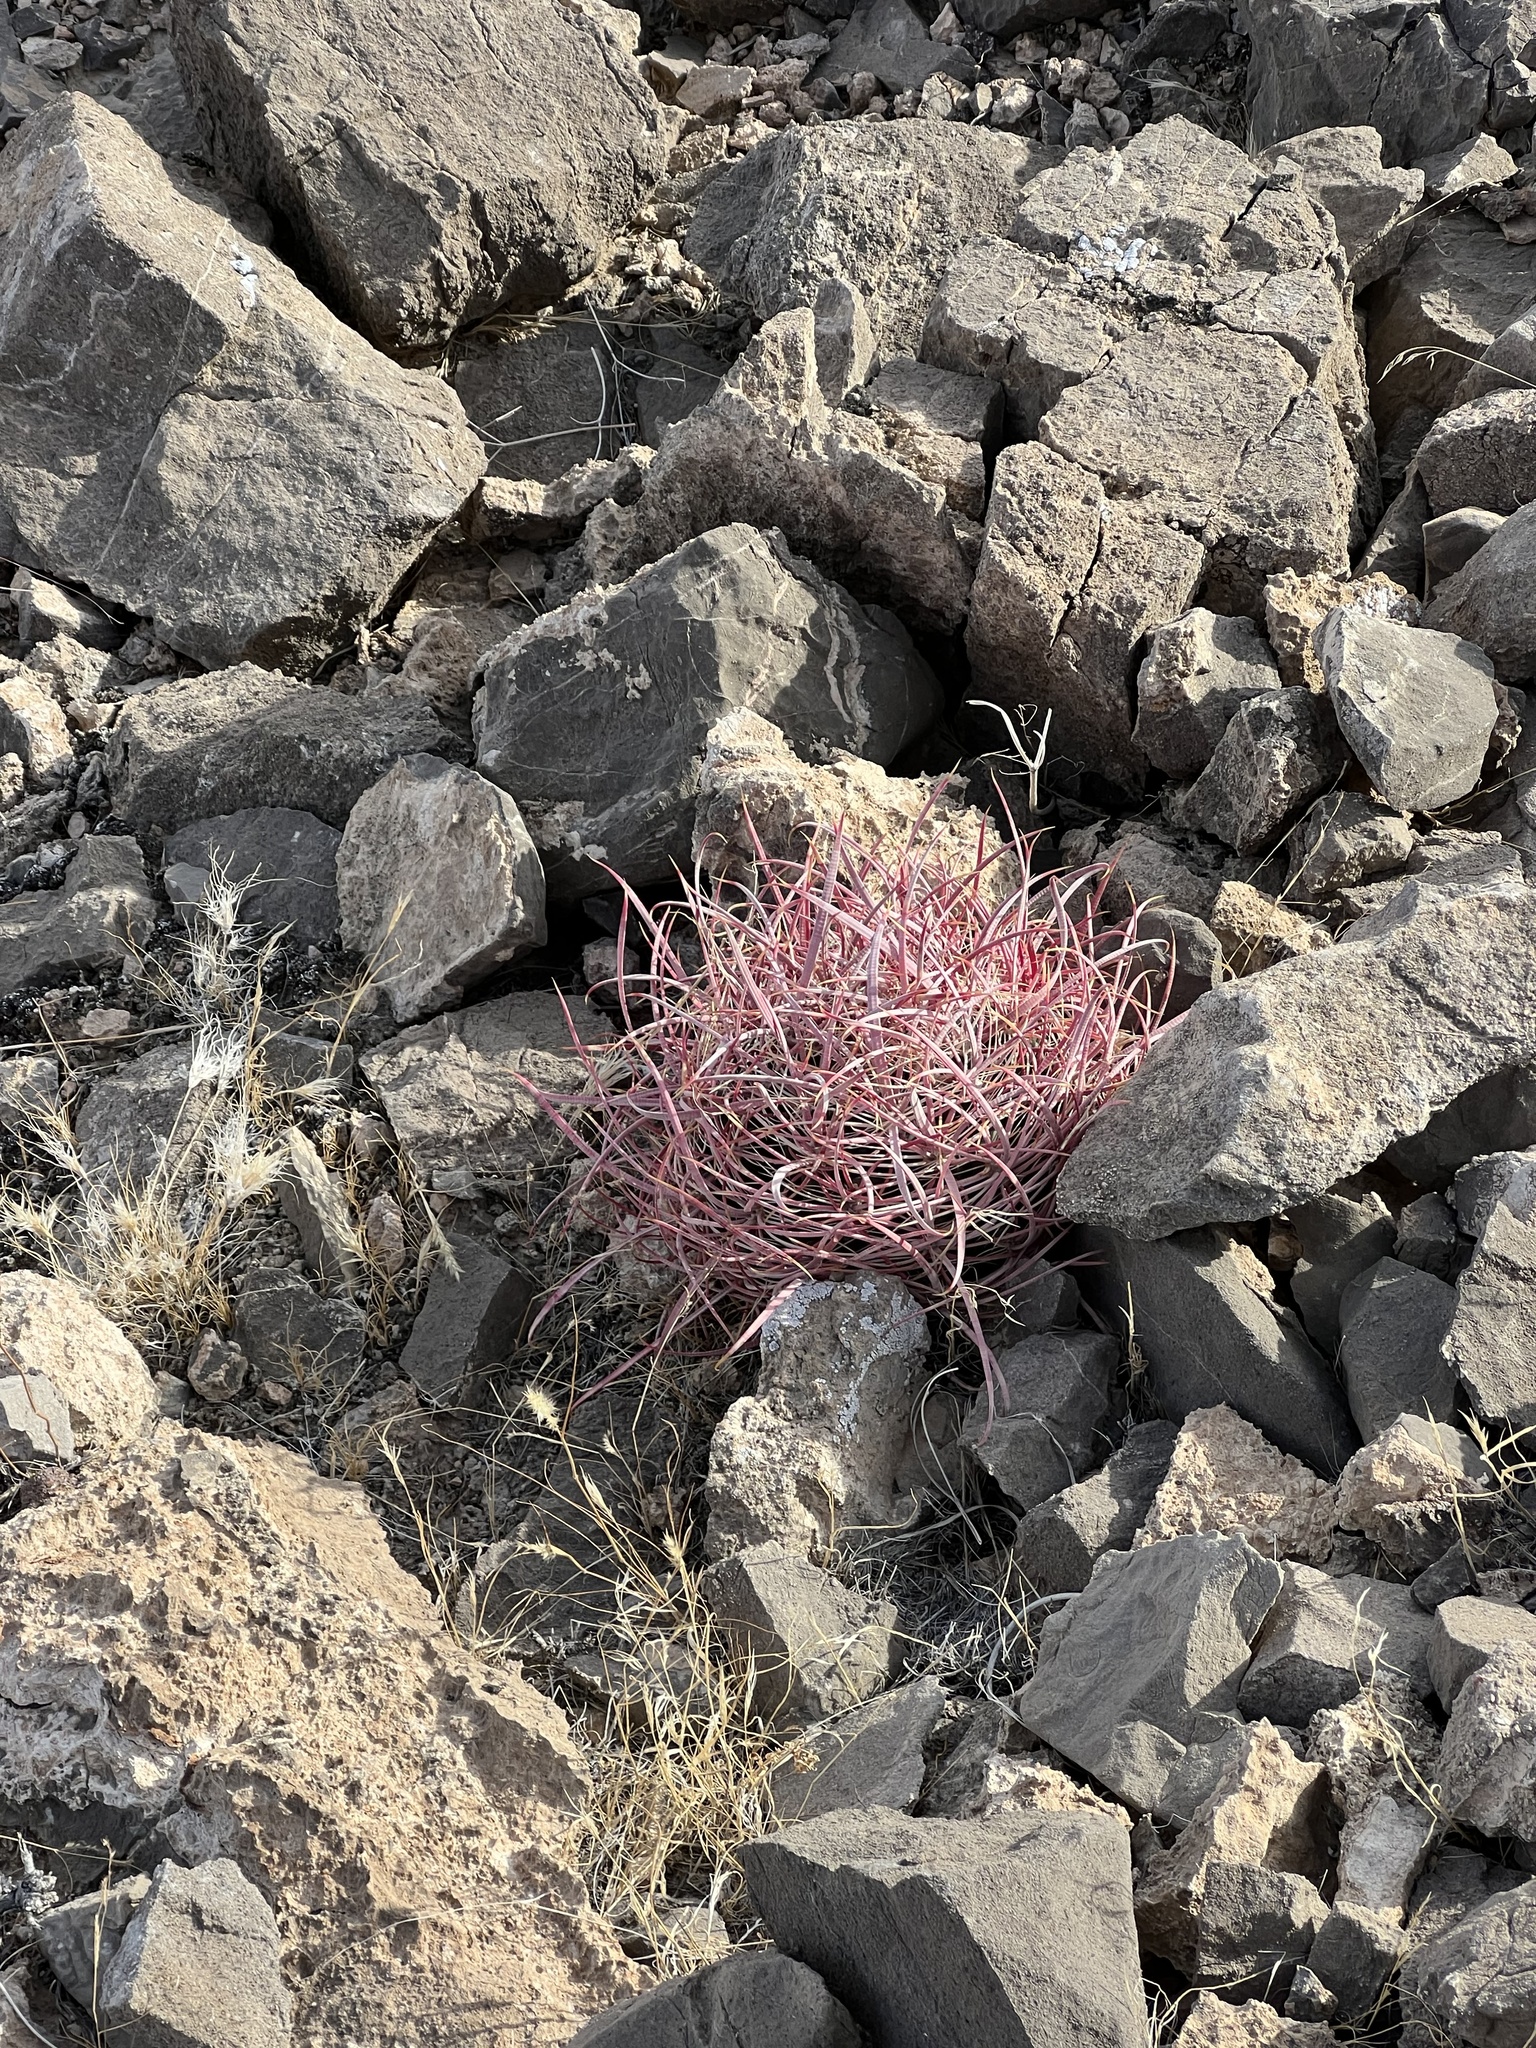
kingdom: Plantae
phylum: Tracheophyta
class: Magnoliopsida
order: Caryophyllales
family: Cactaceae
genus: Ferocactus
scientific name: Ferocactus cylindraceus
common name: California barrel cactus
